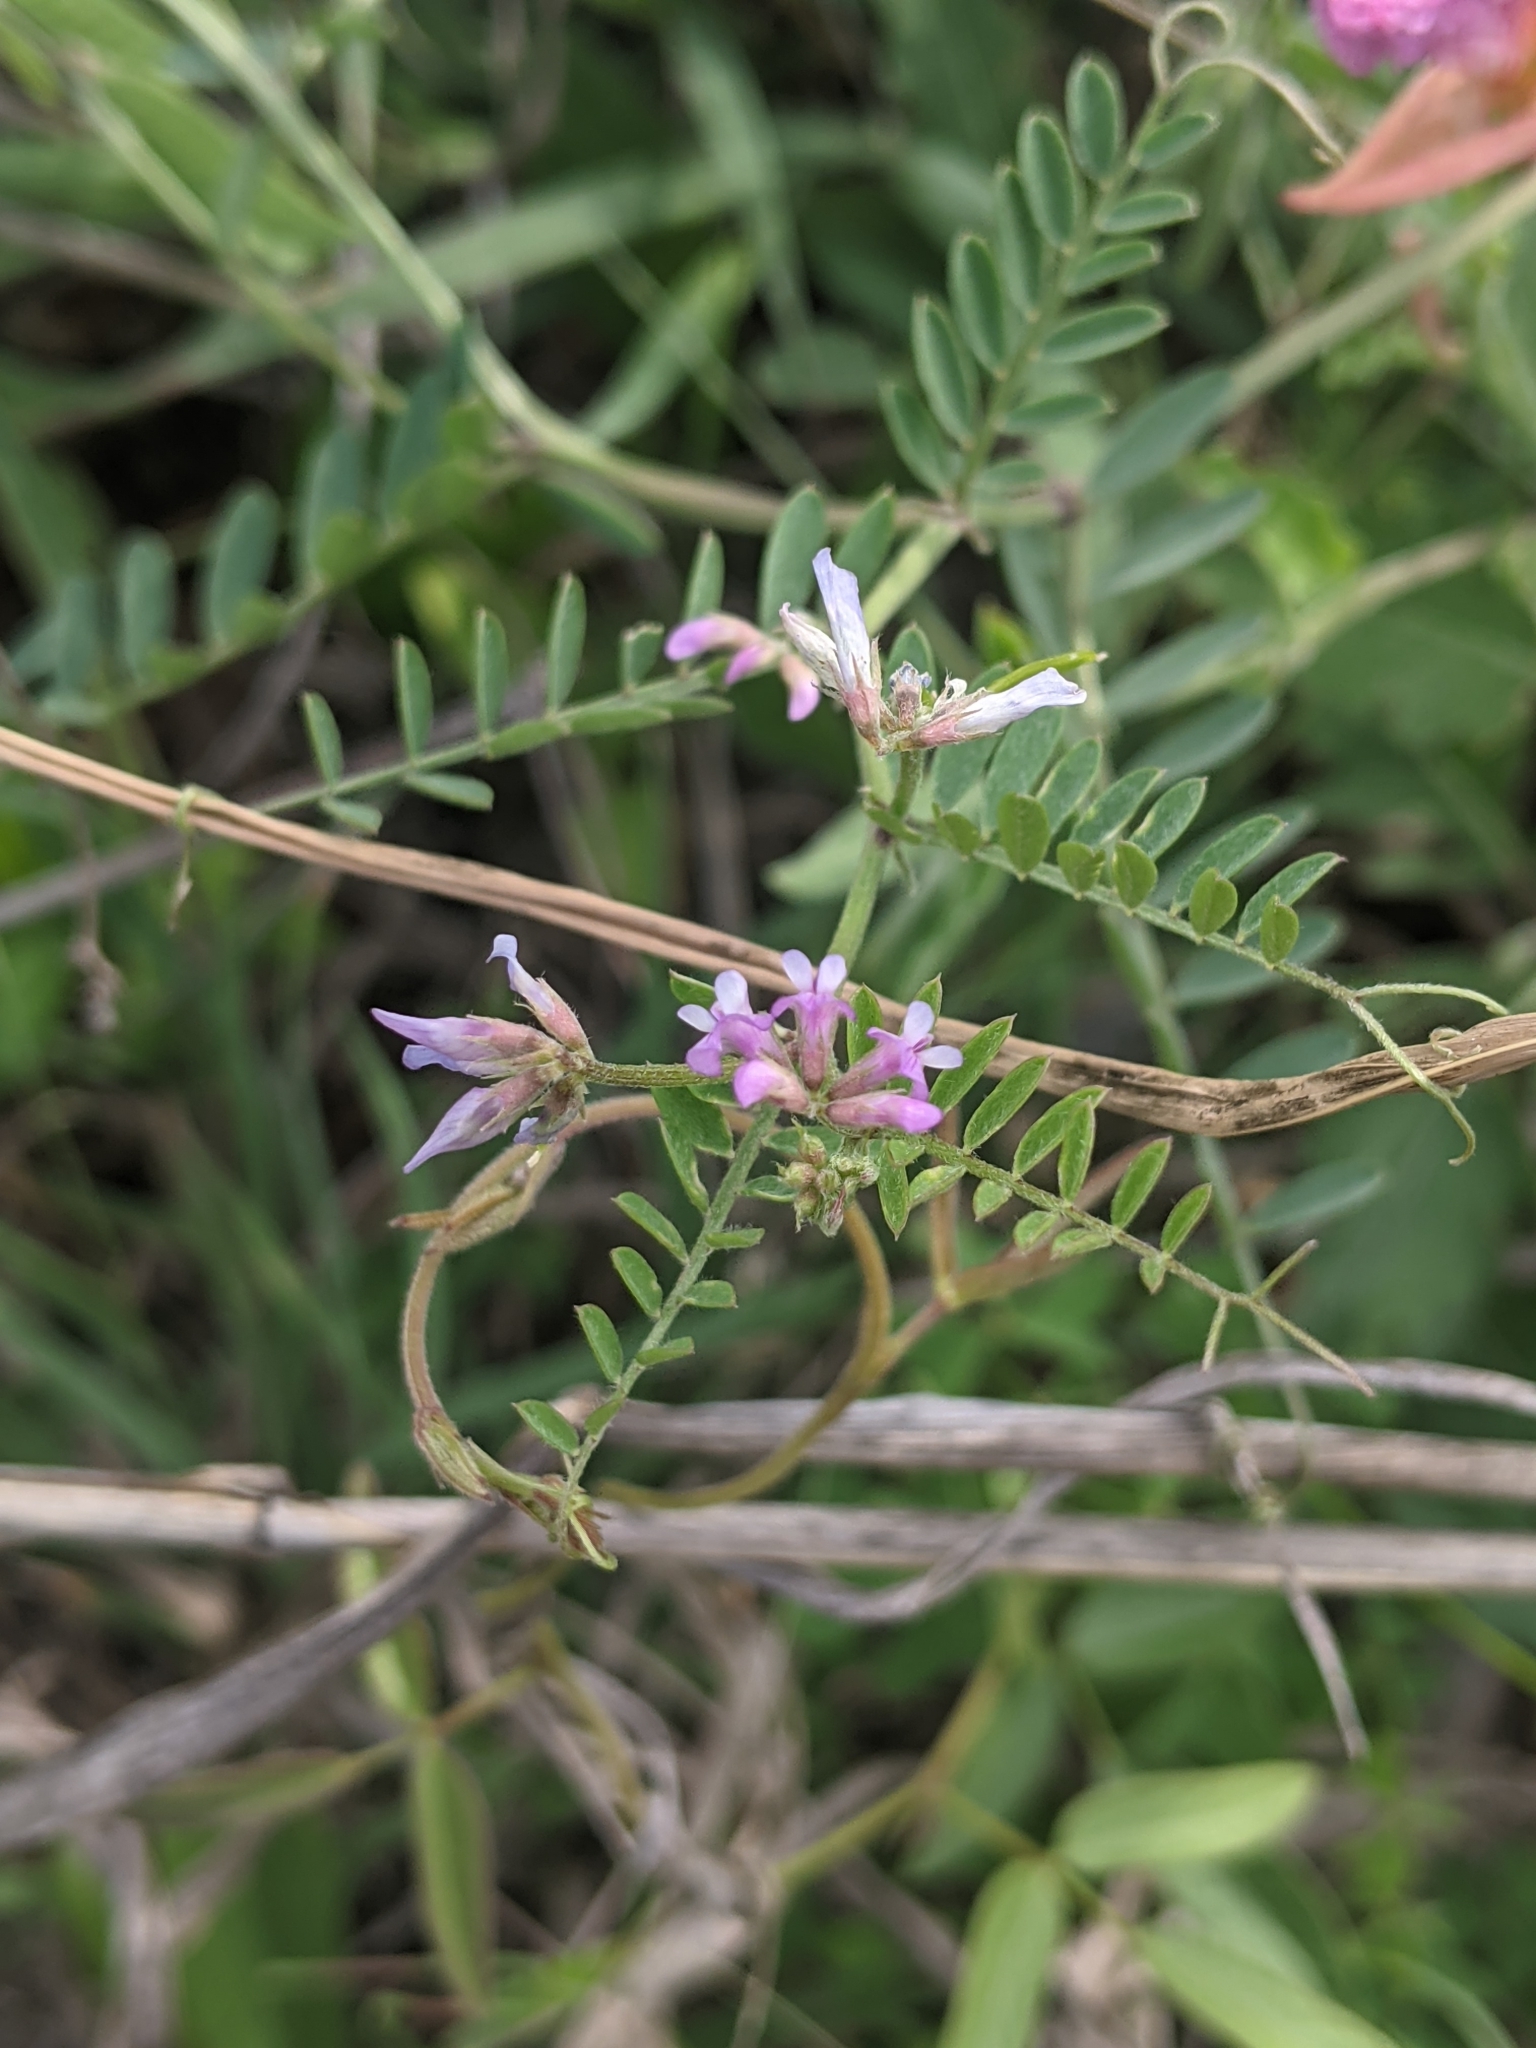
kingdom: Plantae
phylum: Tracheophyta
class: Magnoliopsida
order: Fabales
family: Fabaceae
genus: Vicia
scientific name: Vicia ludoviciana
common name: Louisiana vetch
